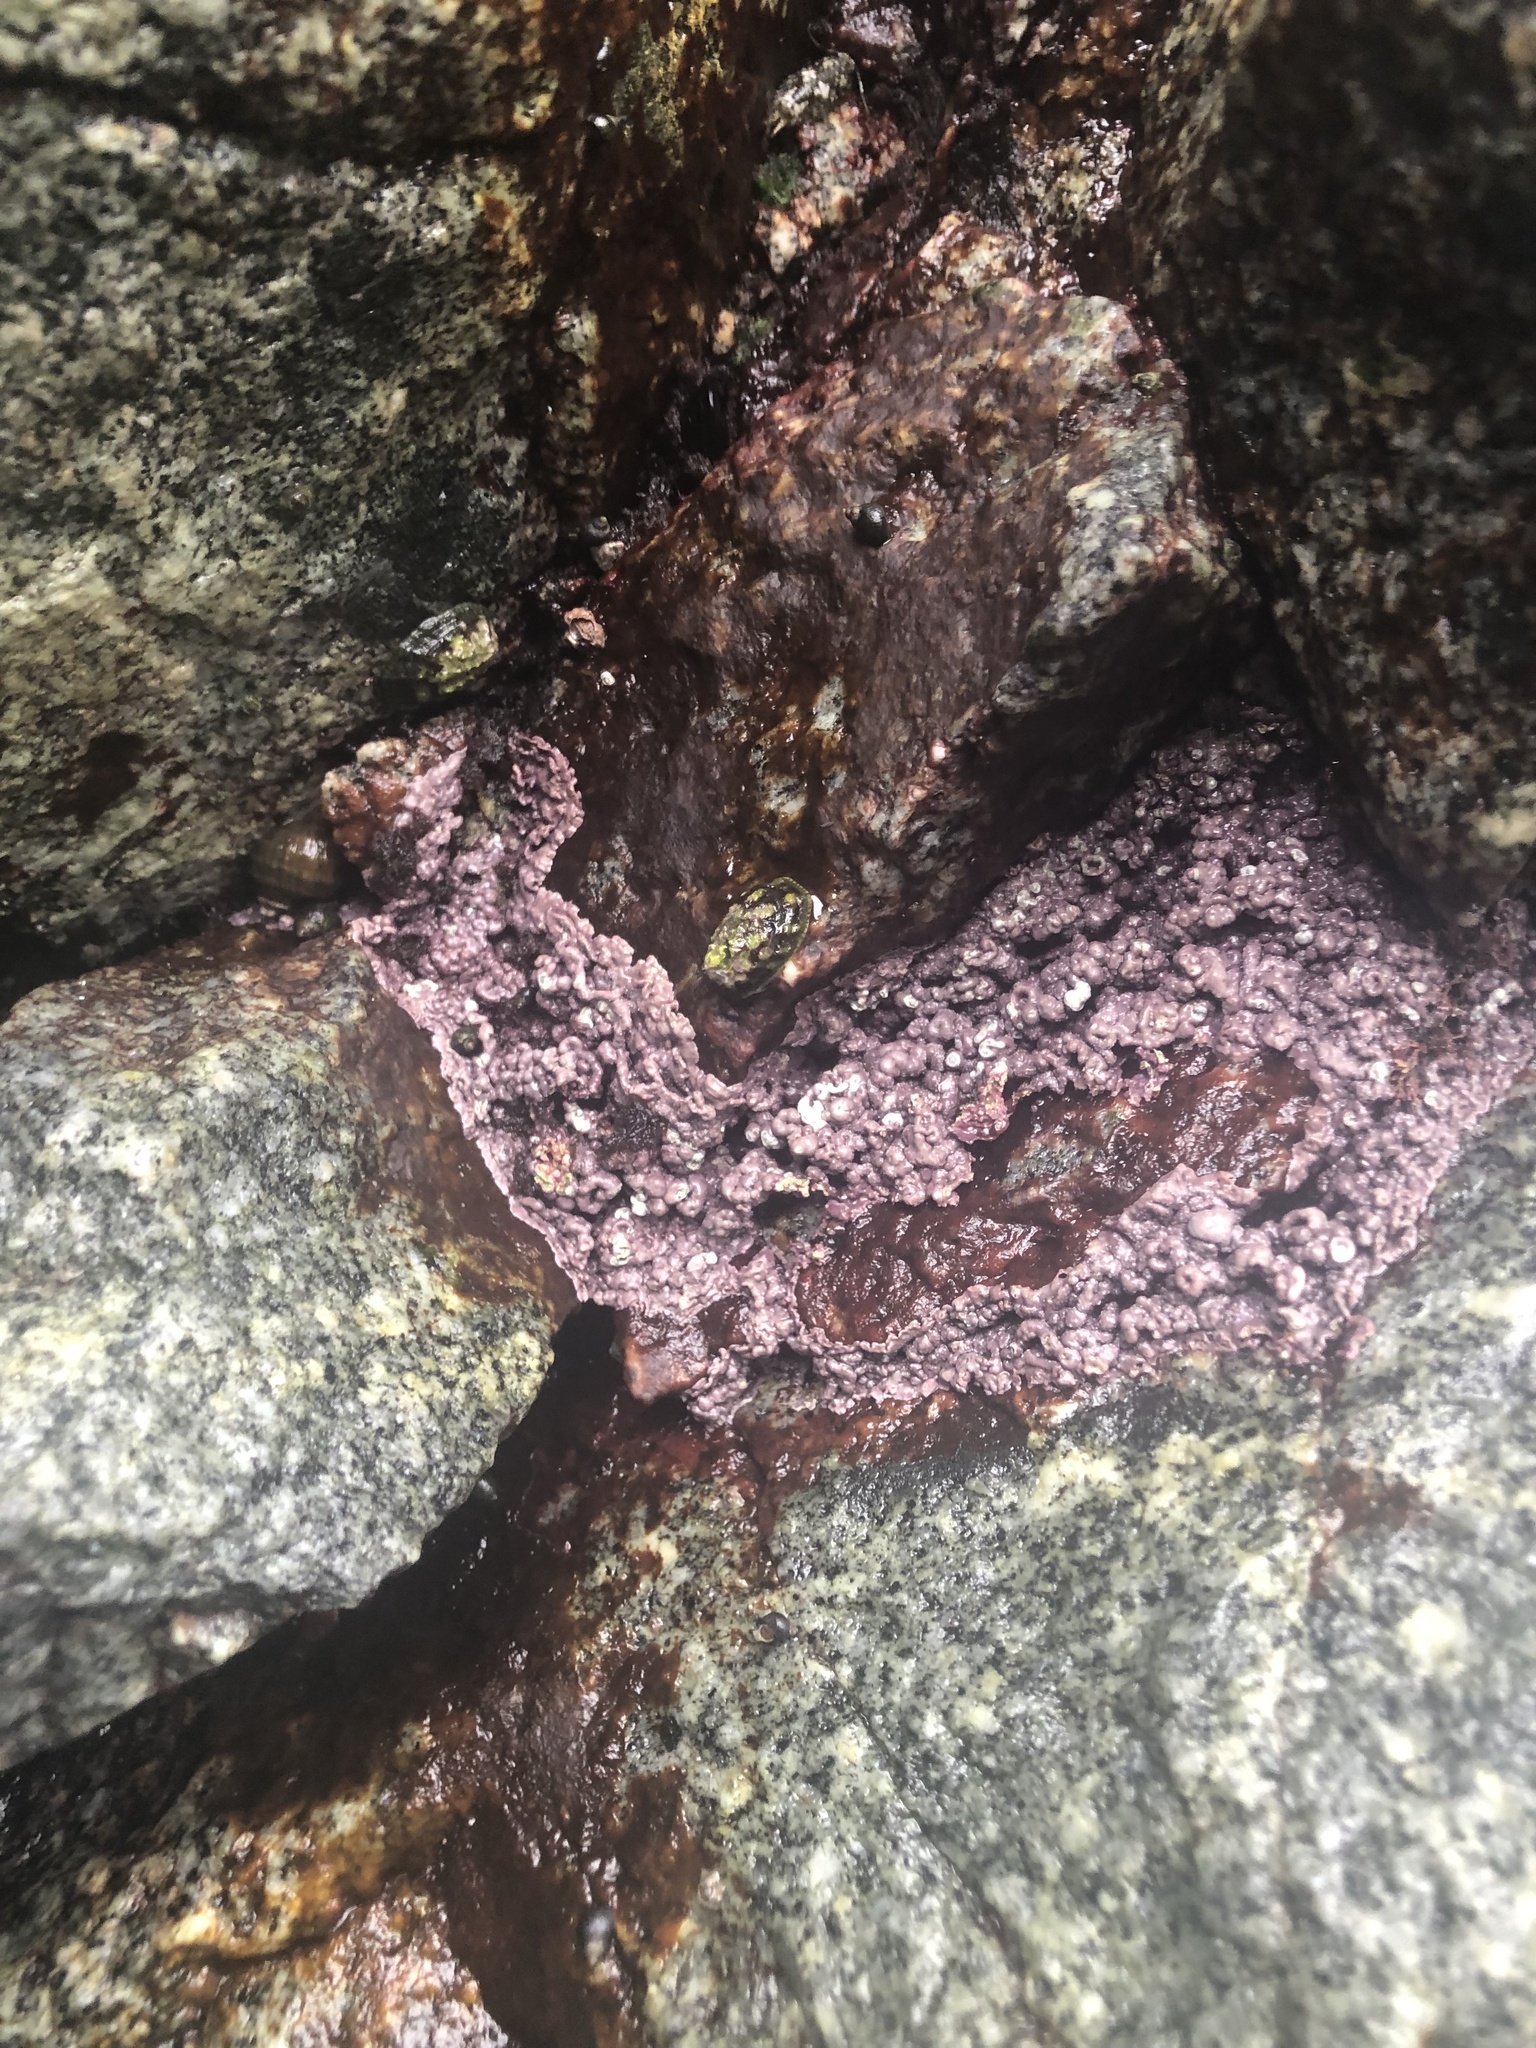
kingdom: Plantae
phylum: Rhodophyta
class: Florideophyceae
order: Corallinales
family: Corallinaceae
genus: Chamberlainium
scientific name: Chamberlainium tumidum
